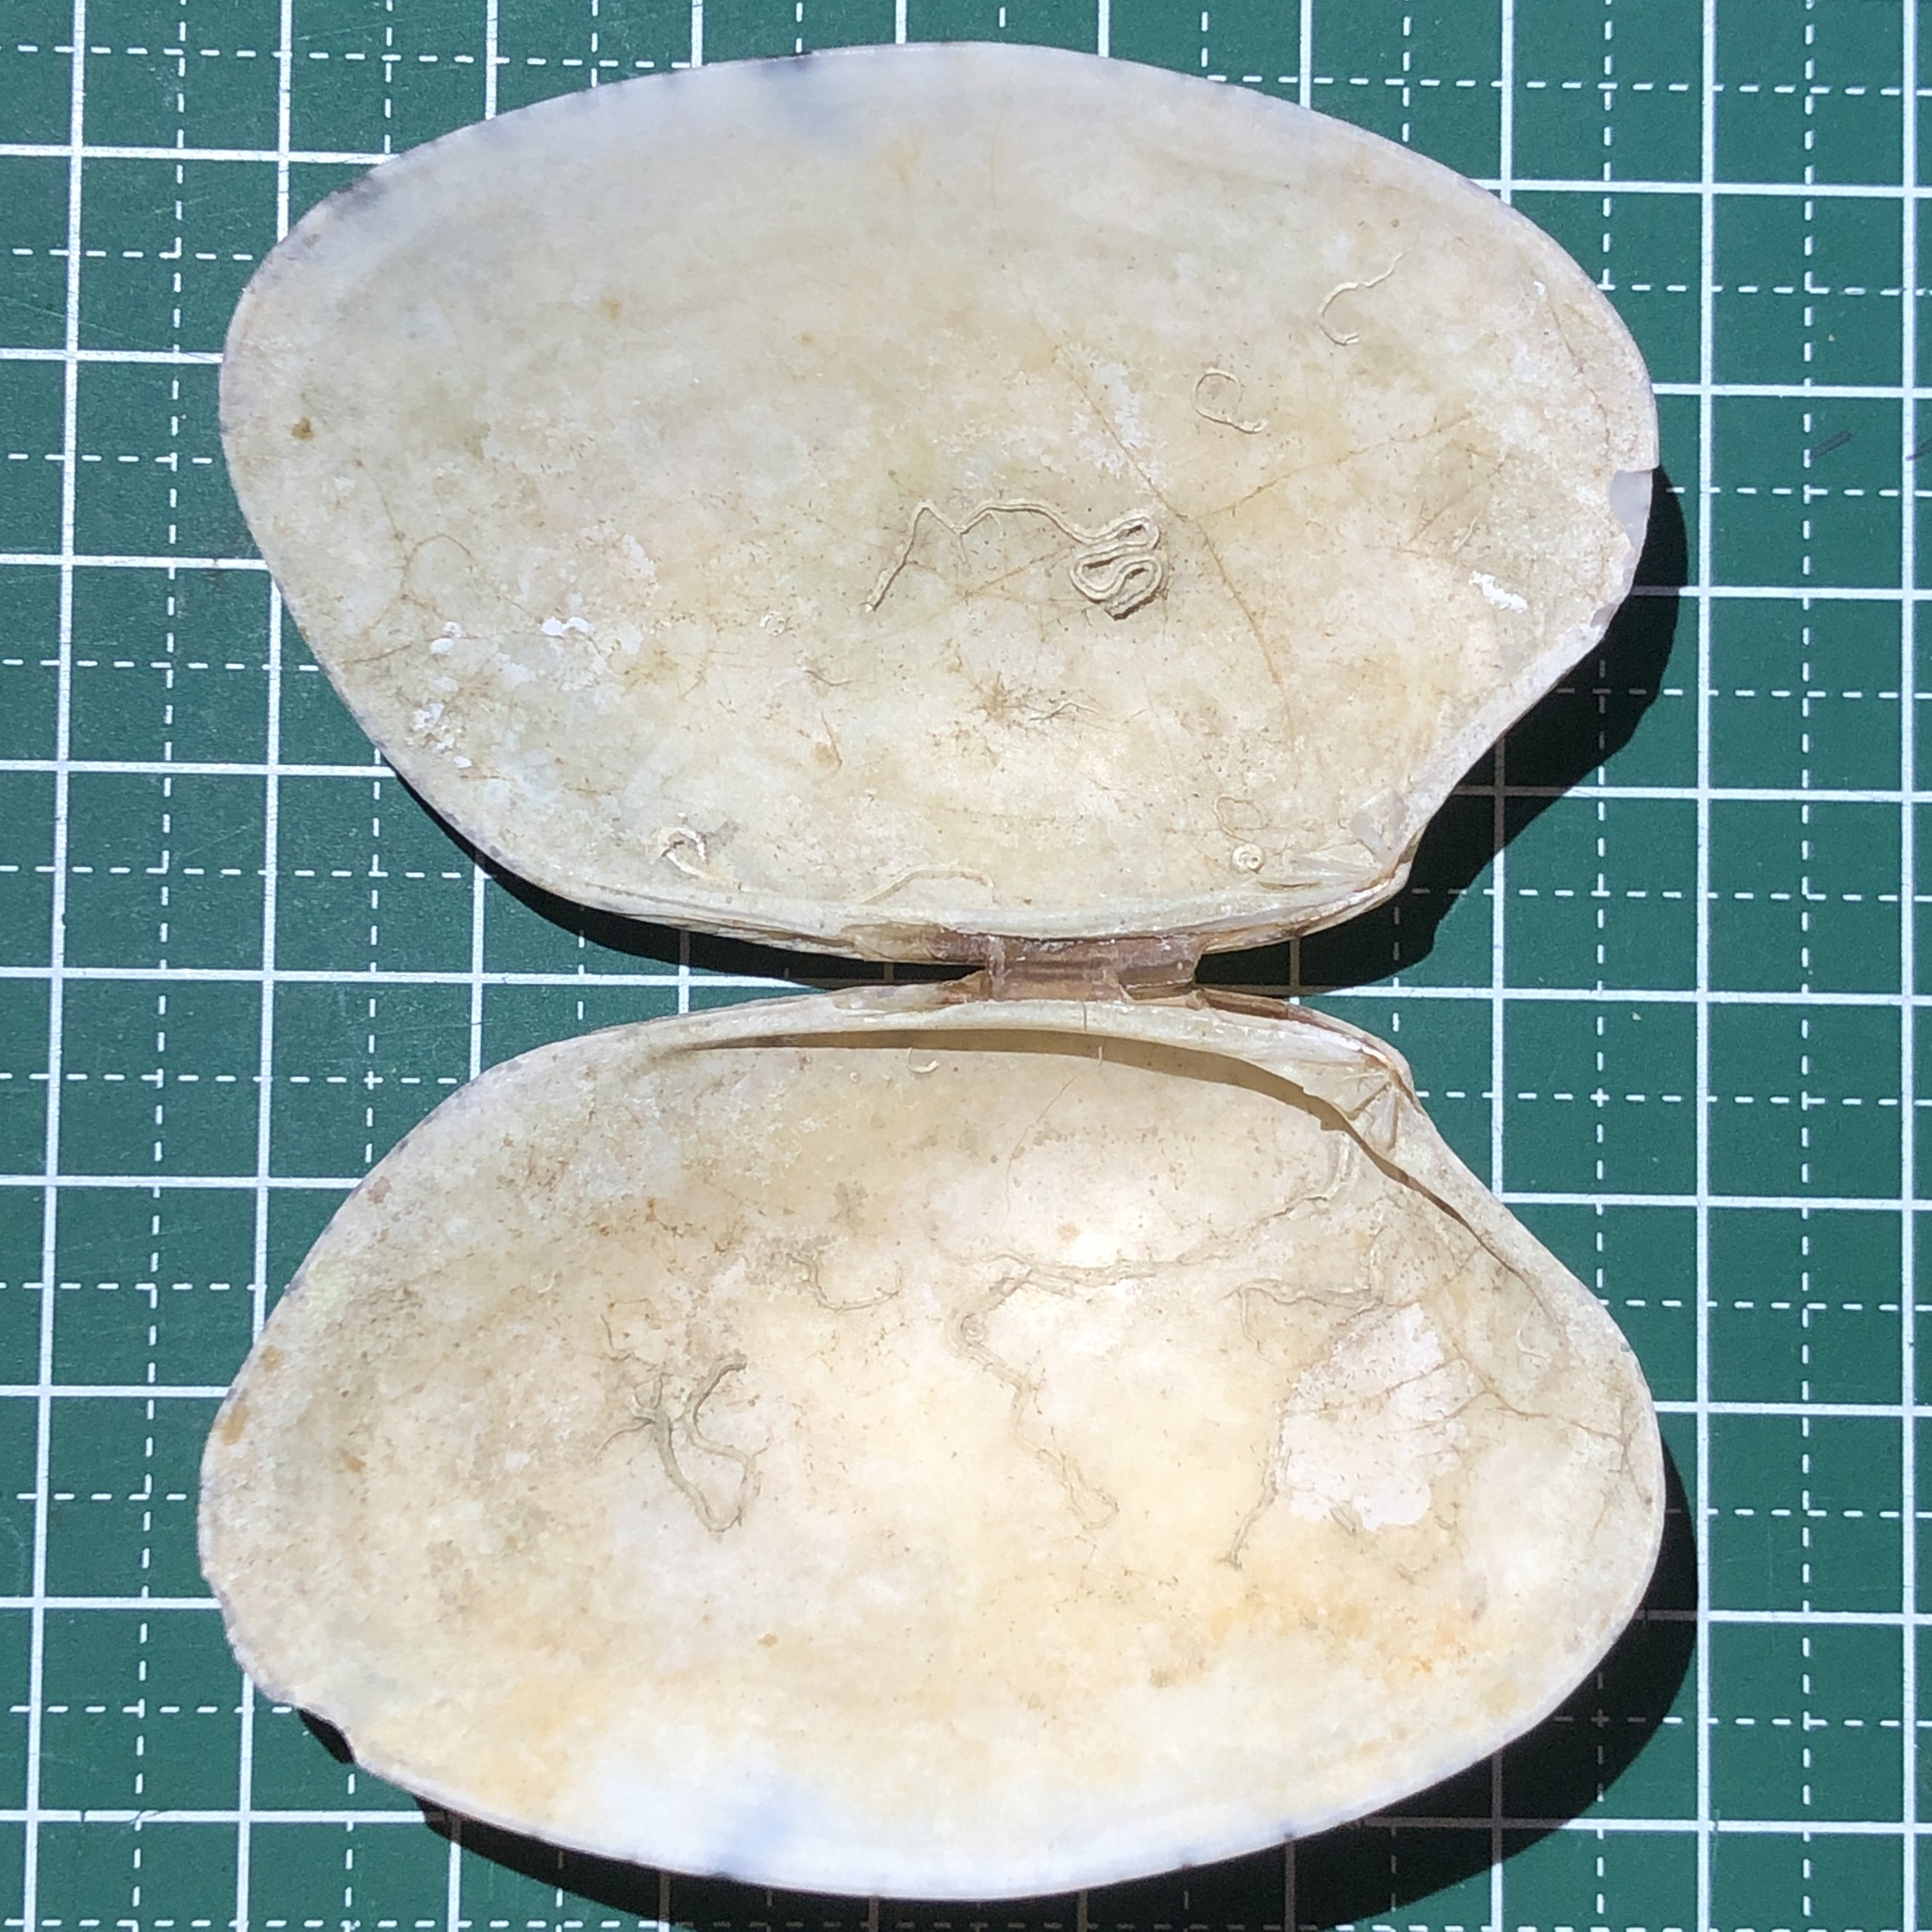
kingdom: Animalia
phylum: Mollusca
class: Bivalvia
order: Venerida
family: Veneridae
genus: Tapes
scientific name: Tapes literatus
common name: Lettered carpet shell
